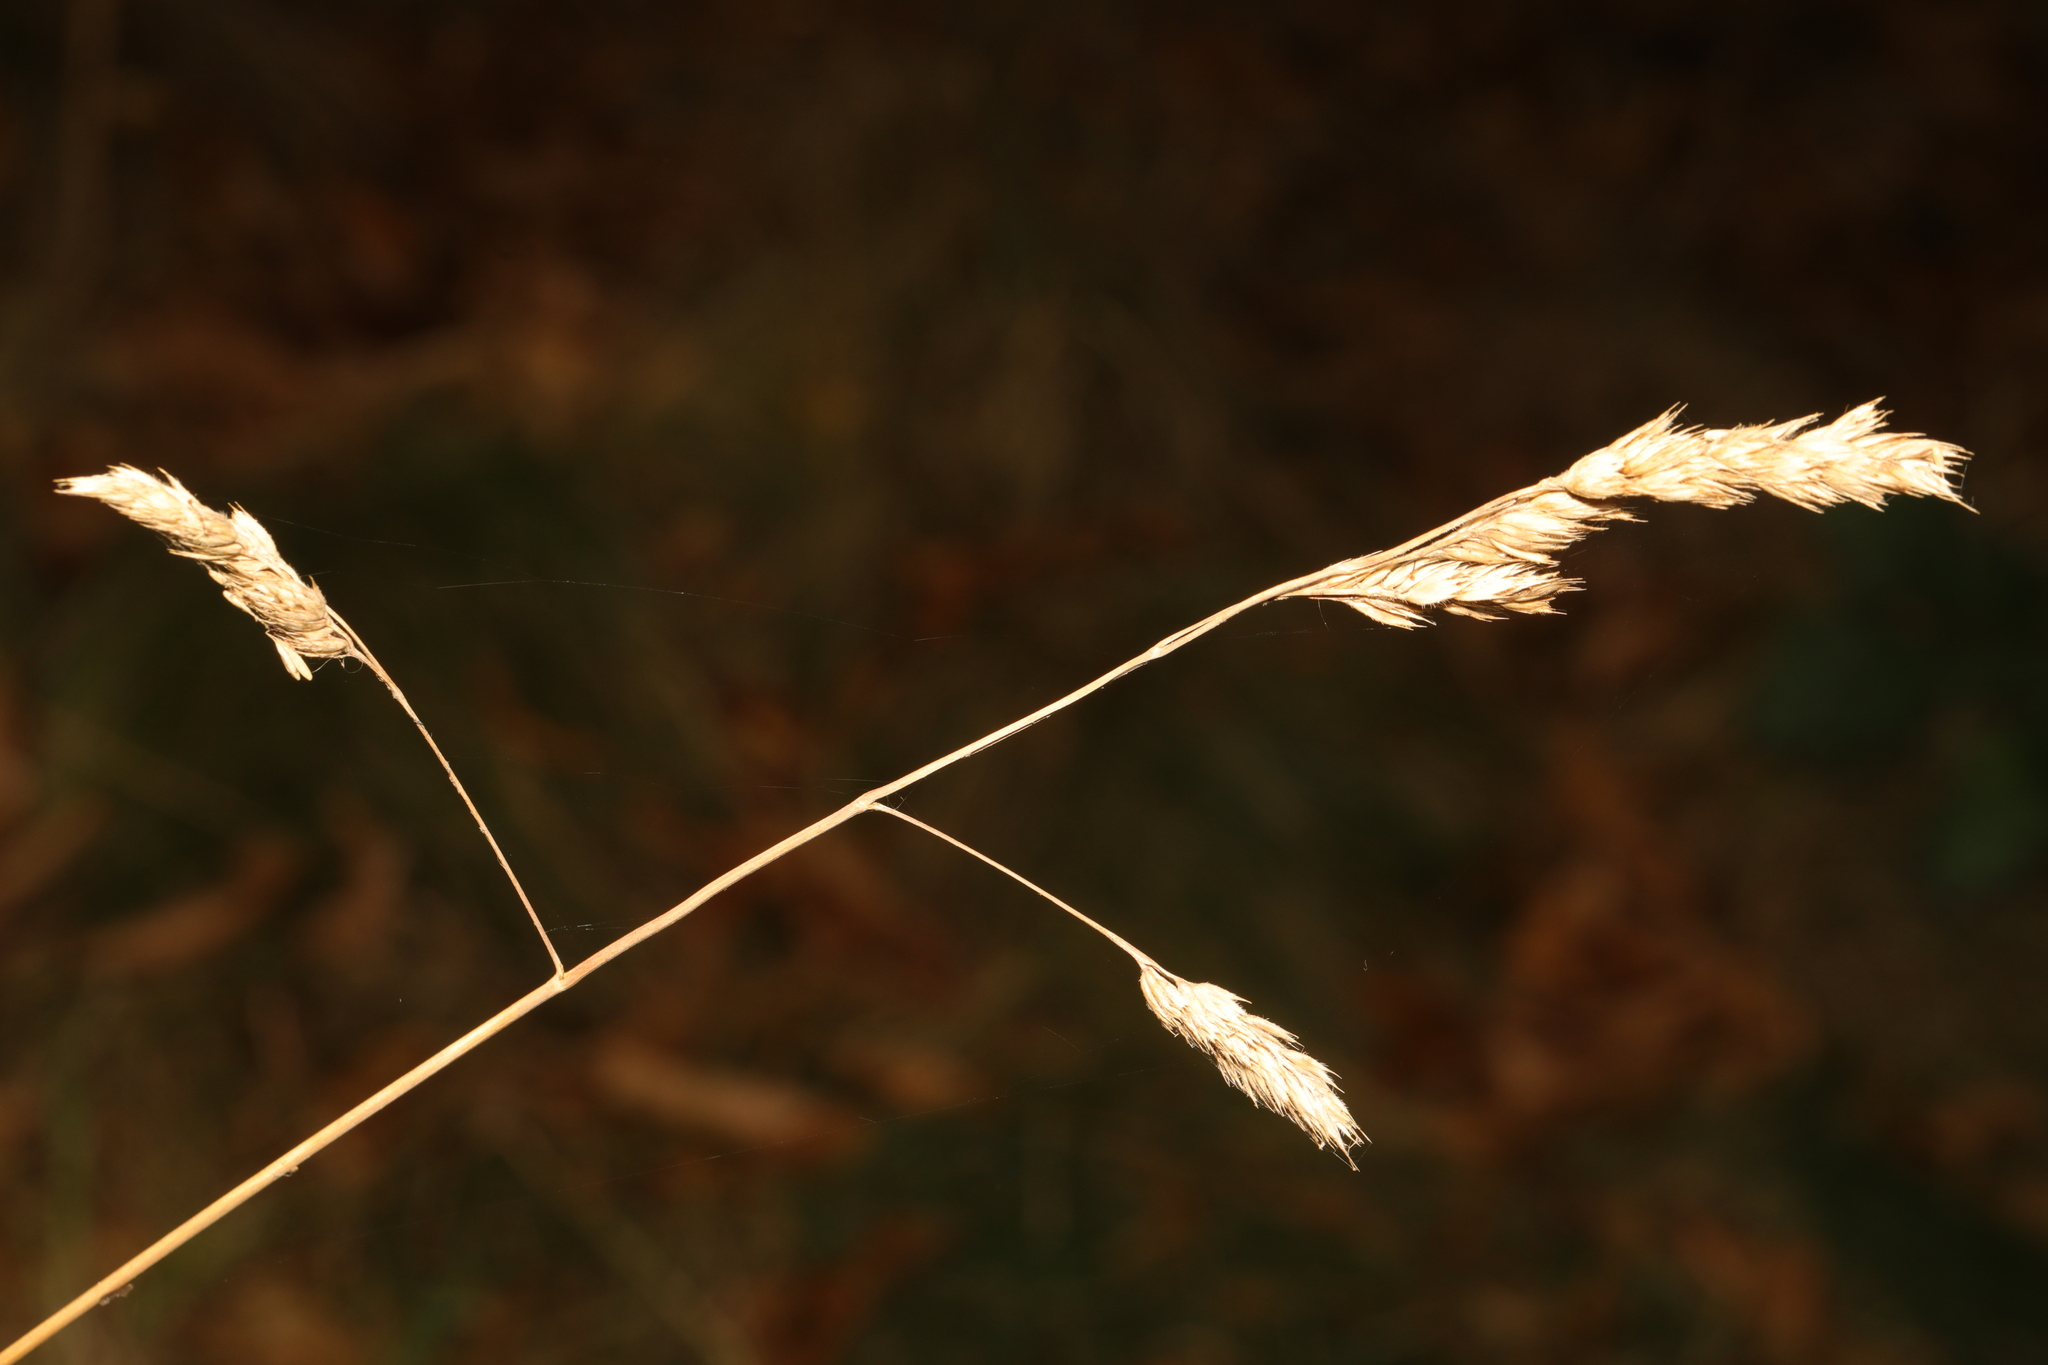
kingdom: Plantae
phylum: Tracheophyta
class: Liliopsida
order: Poales
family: Poaceae
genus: Dactylis
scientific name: Dactylis glomerata
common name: Orchardgrass
